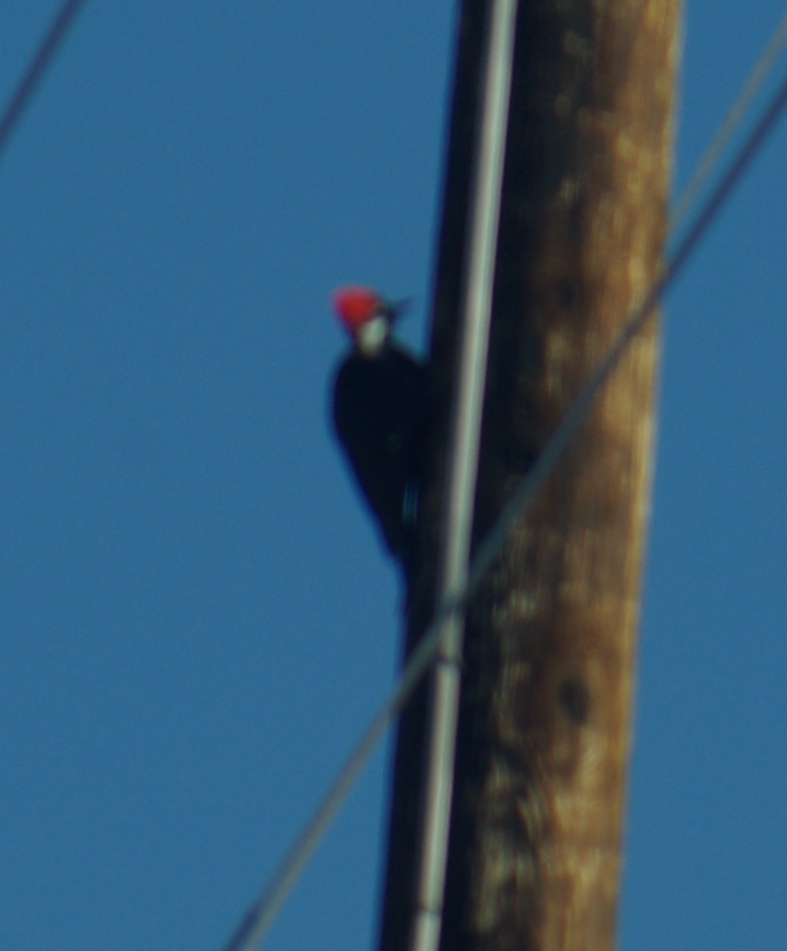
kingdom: Animalia
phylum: Chordata
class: Aves
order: Piciformes
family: Picidae
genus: Dryocopus
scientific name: Dryocopus pileatus
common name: Pileated woodpecker
